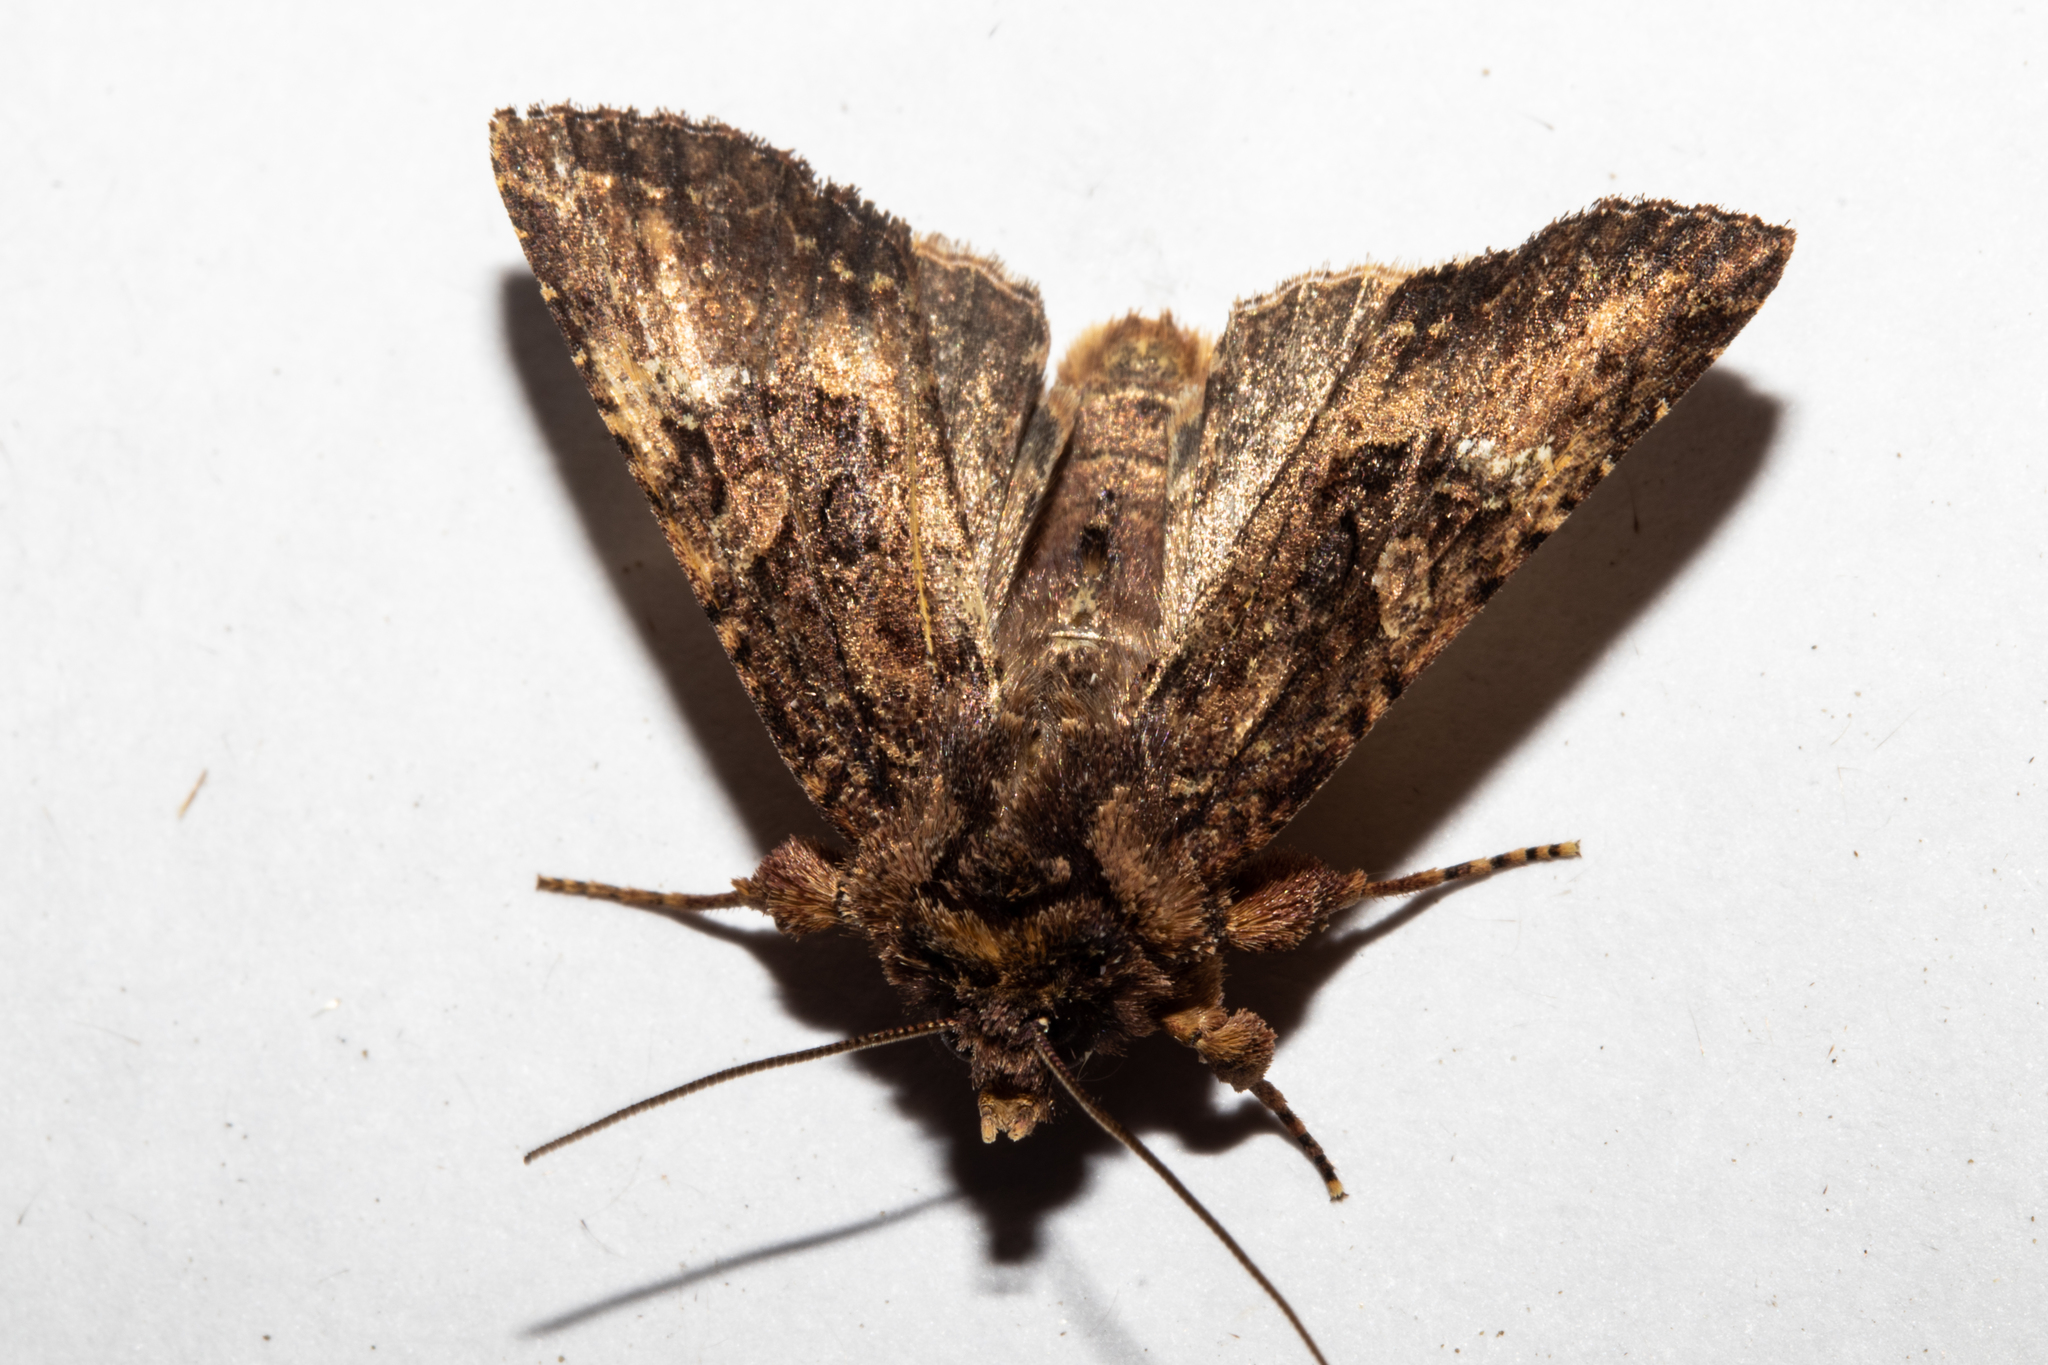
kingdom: Animalia
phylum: Arthropoda
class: Insecta
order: Lepidoptera
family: Noctuidae
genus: Meterana
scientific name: Meterana ochthistis
